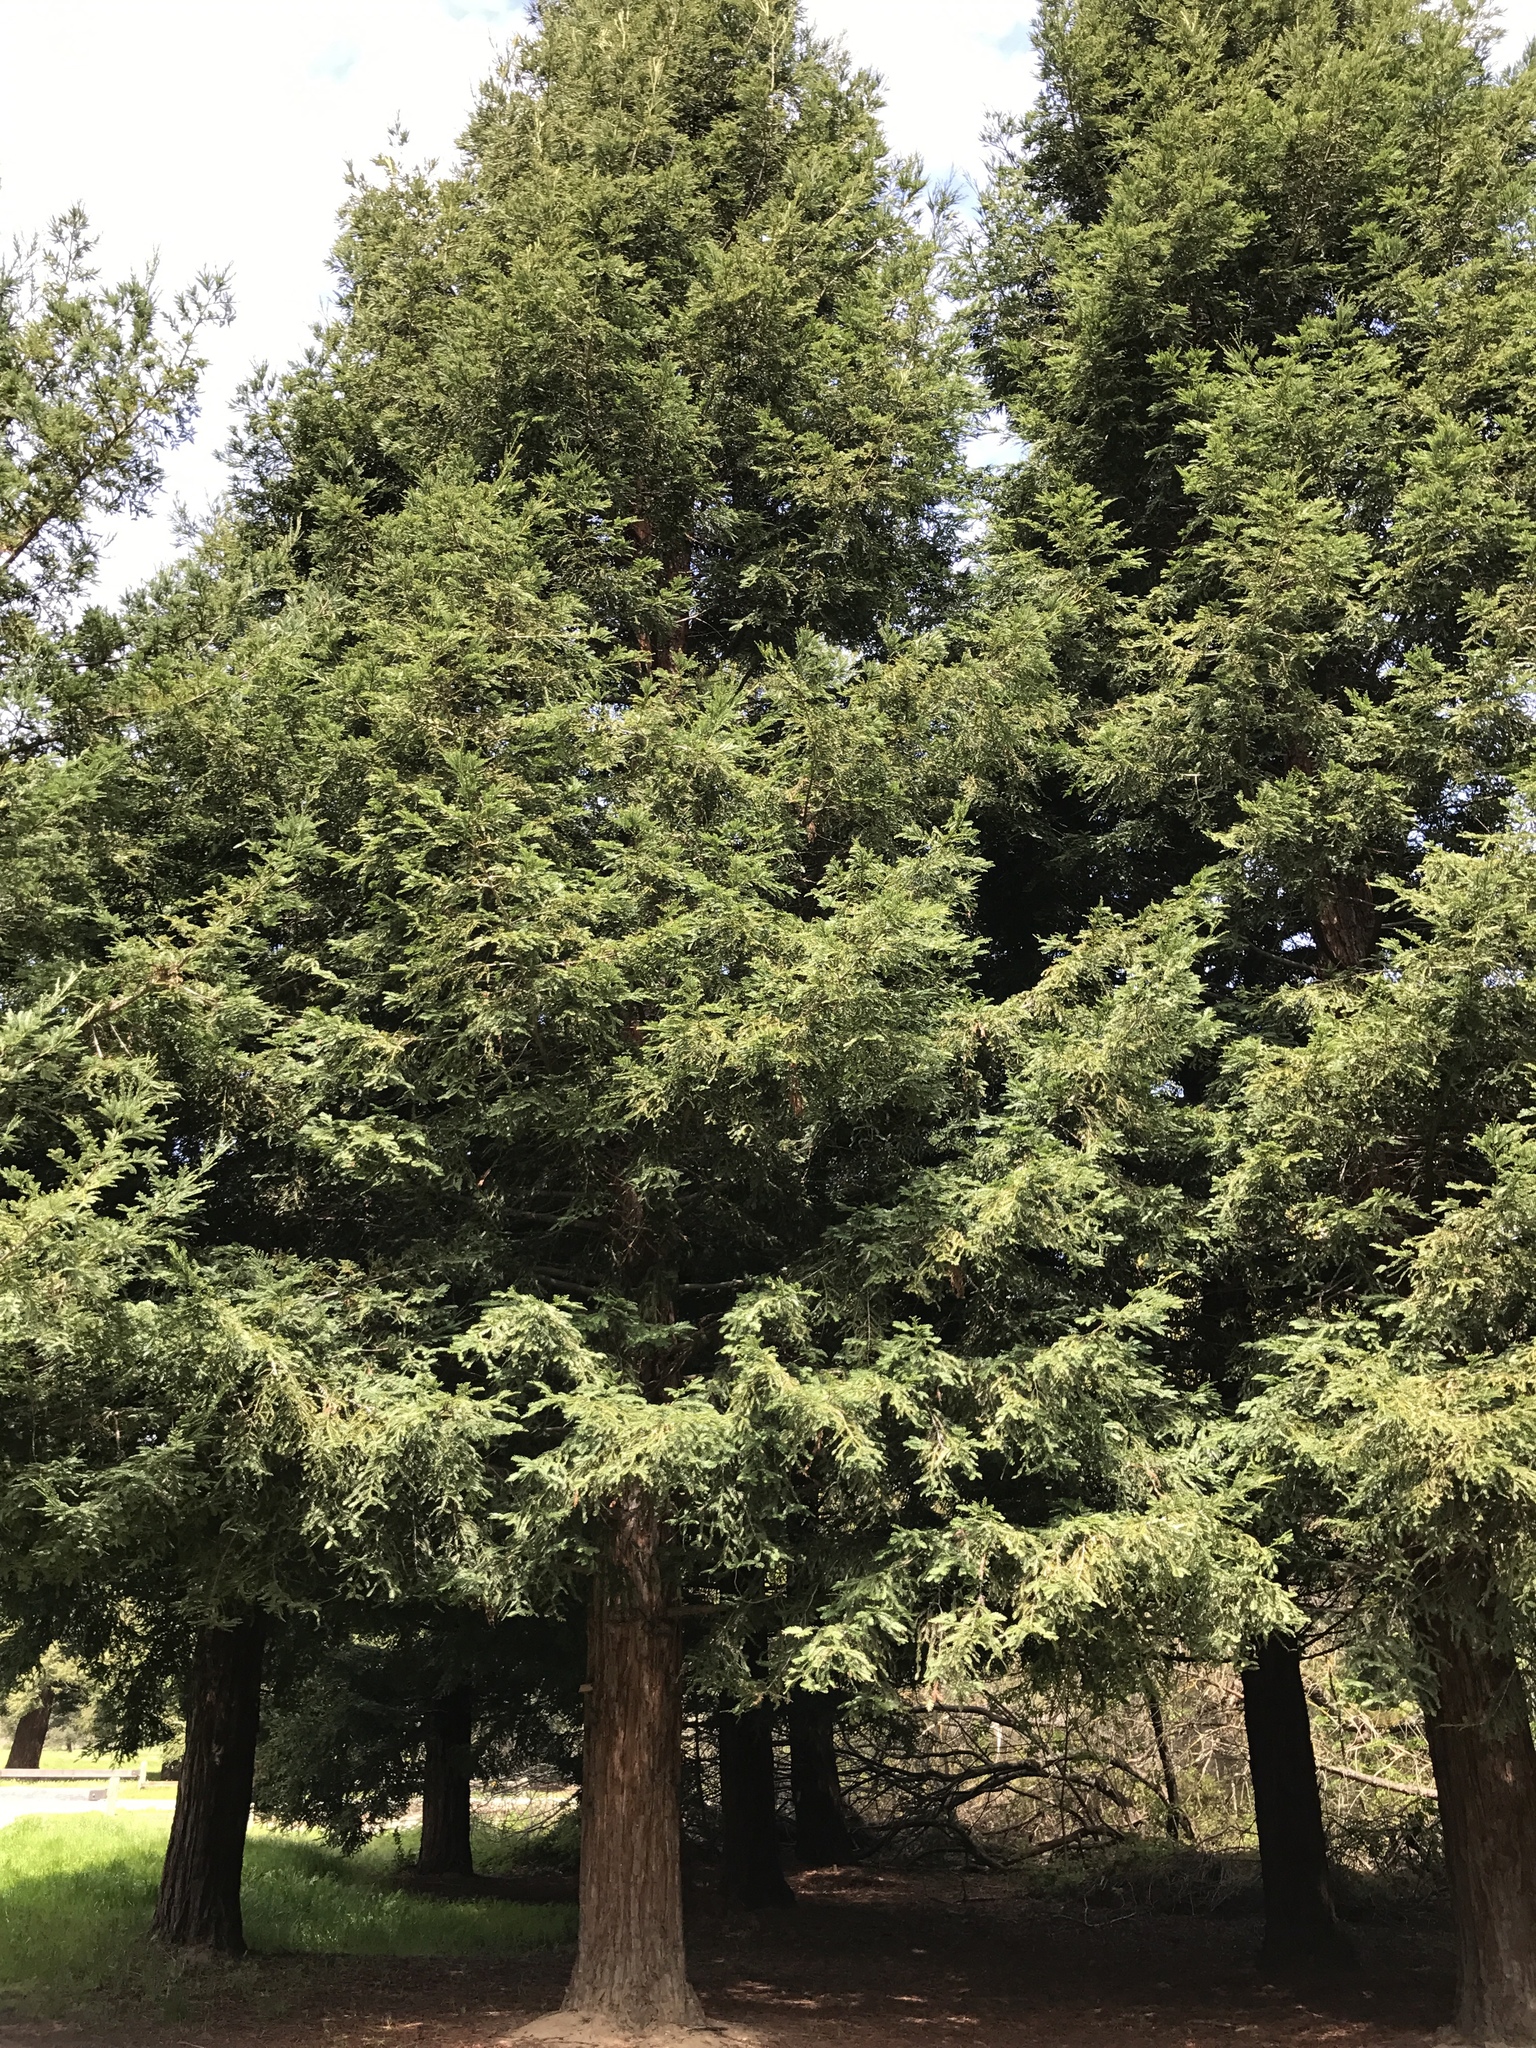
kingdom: Plantae
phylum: Tracheophyta
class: Pinopsida
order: Pinales
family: Cupressaceae
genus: Sequoia
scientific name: Sequoia sempervirens
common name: Coast redwood
